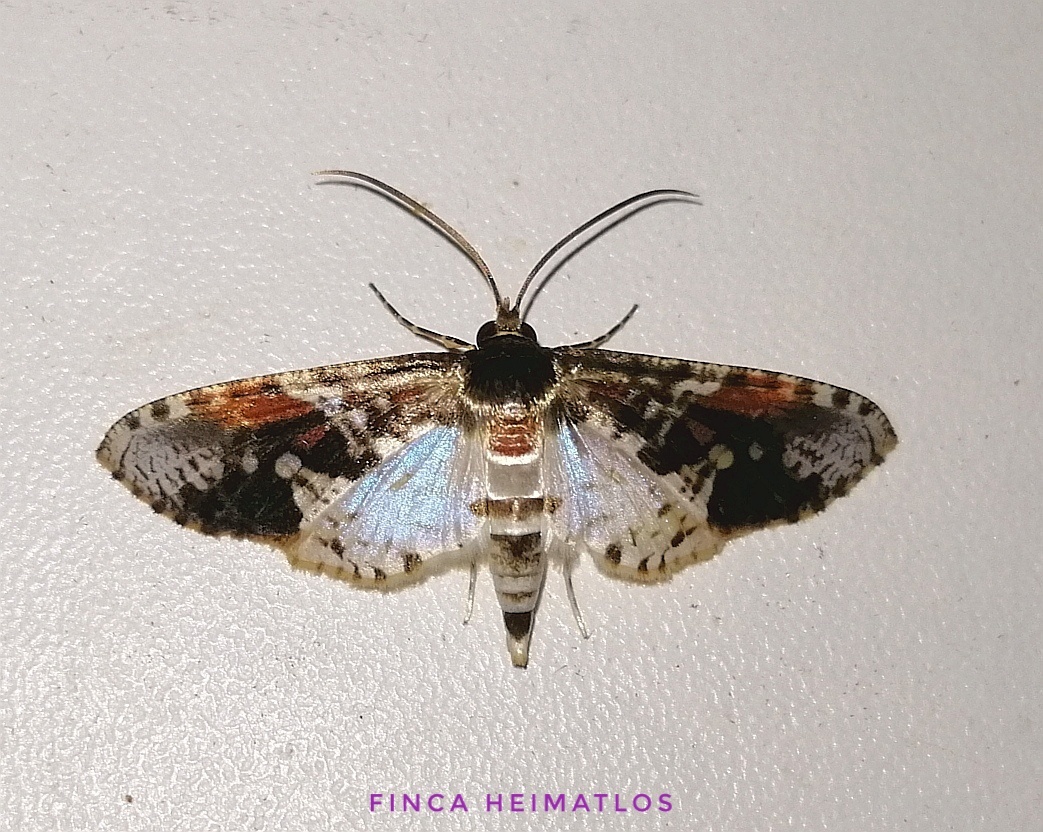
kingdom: Animalia
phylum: Arthropoda
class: Insecta
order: Lepidoptera
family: Thyrididae
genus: Microsca
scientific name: Microsca pulchelloides
